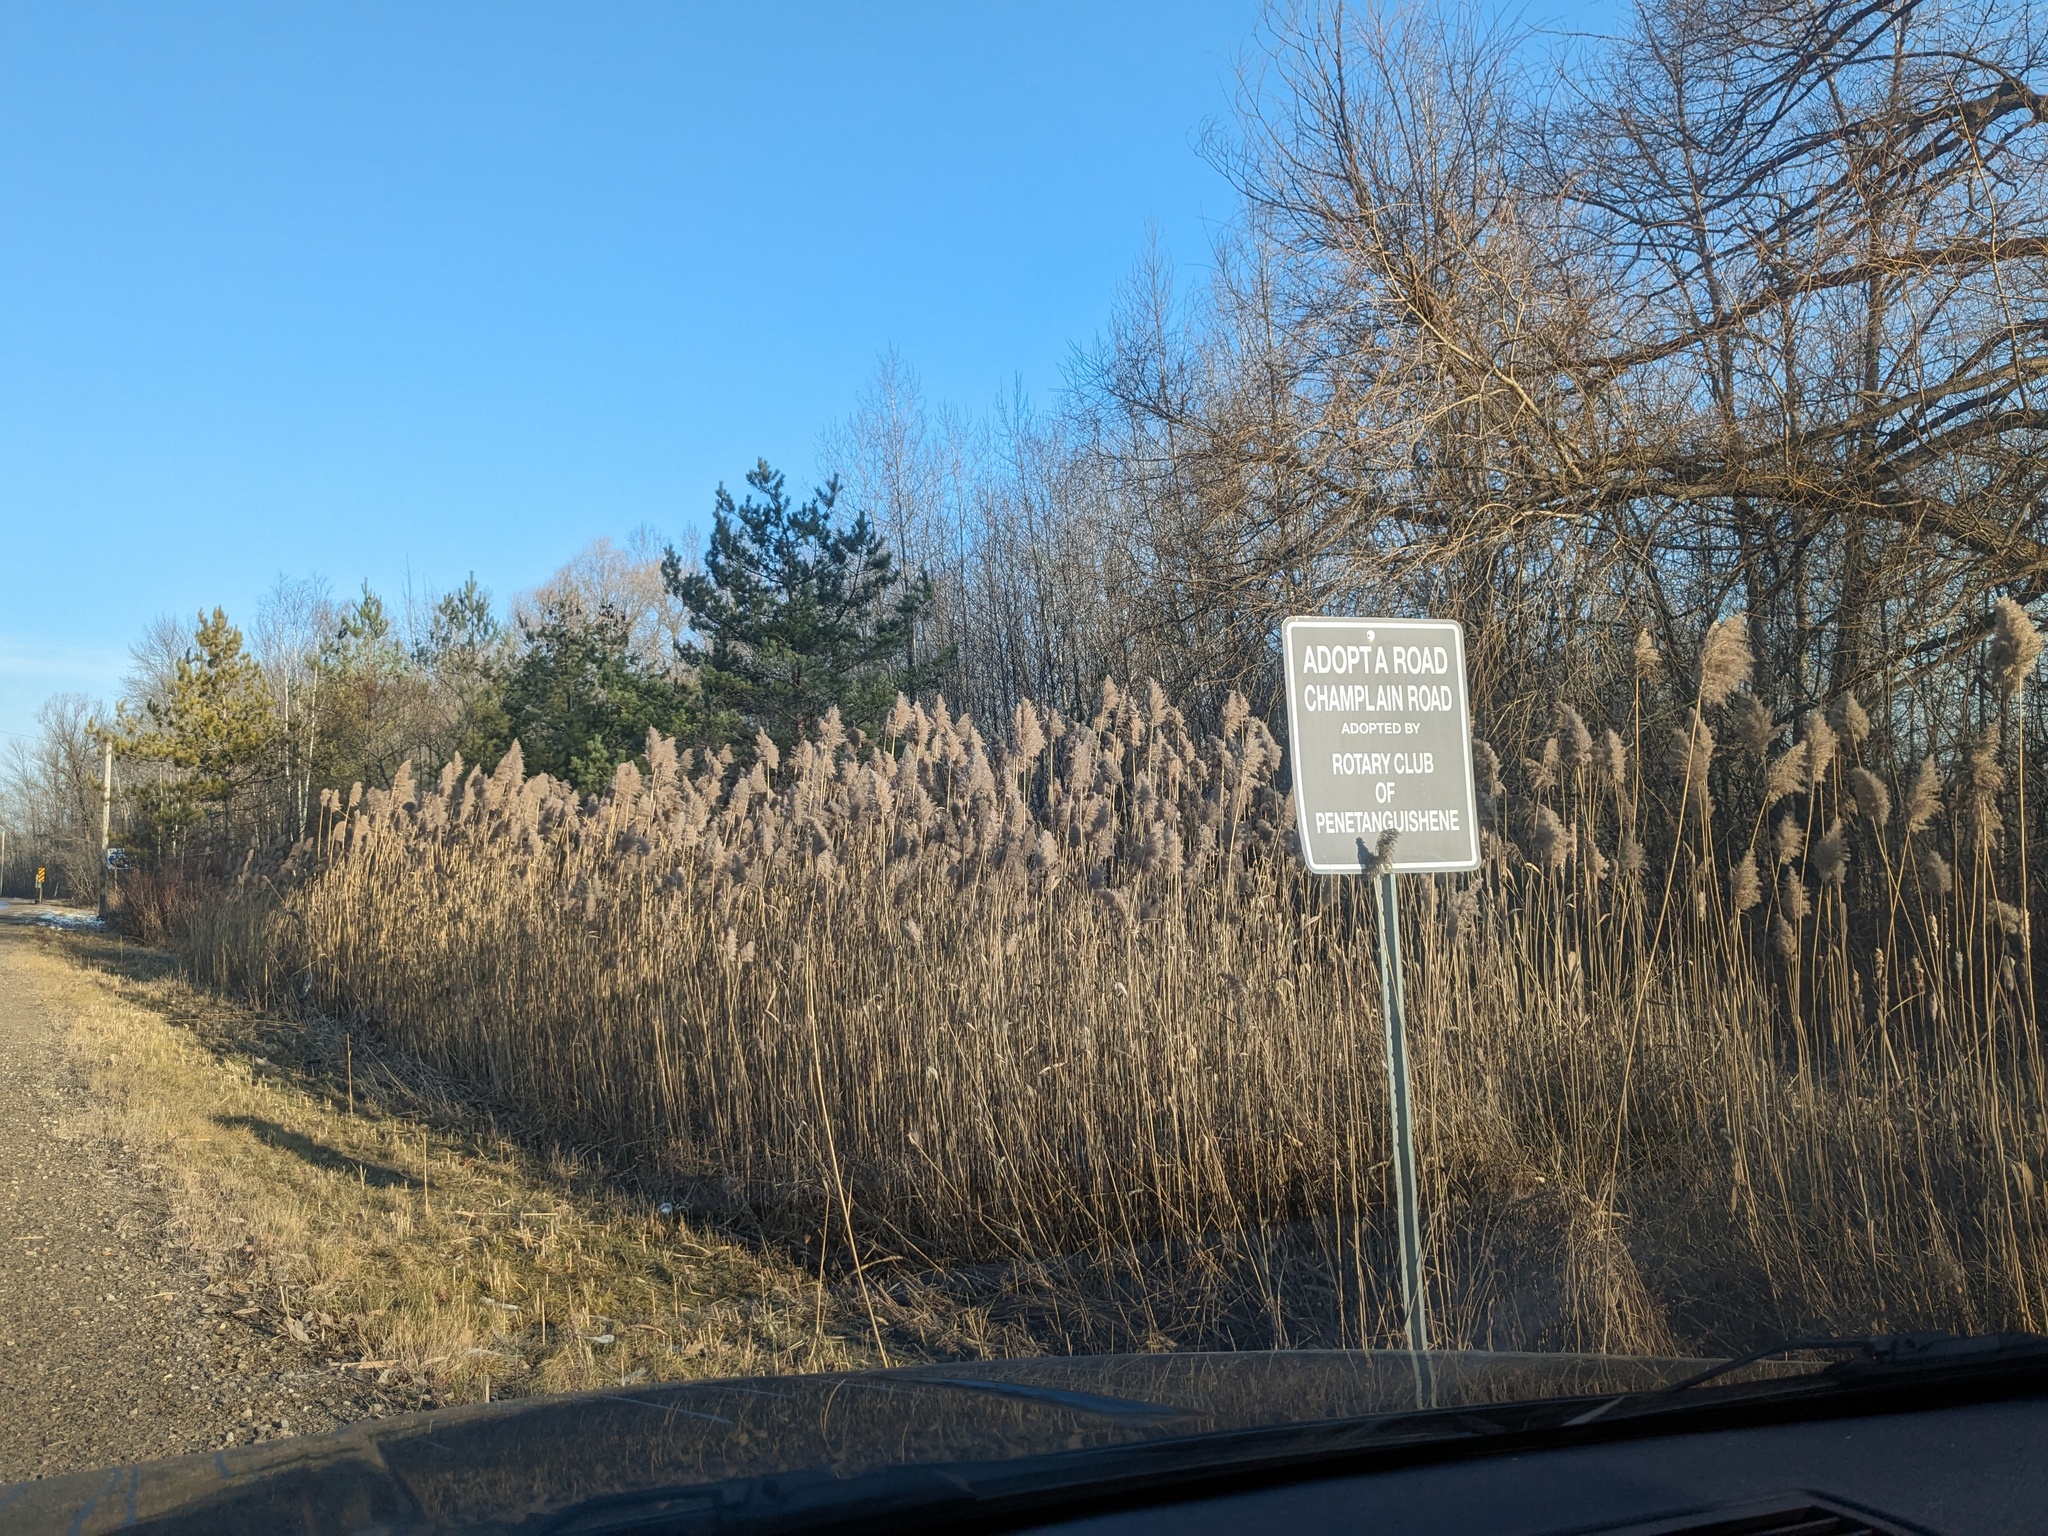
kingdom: Plantae
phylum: Tracheophyta
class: Liliopsida
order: Poales
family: Poaceae
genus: Phragmites
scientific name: Phragmites australis
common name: Common reed
